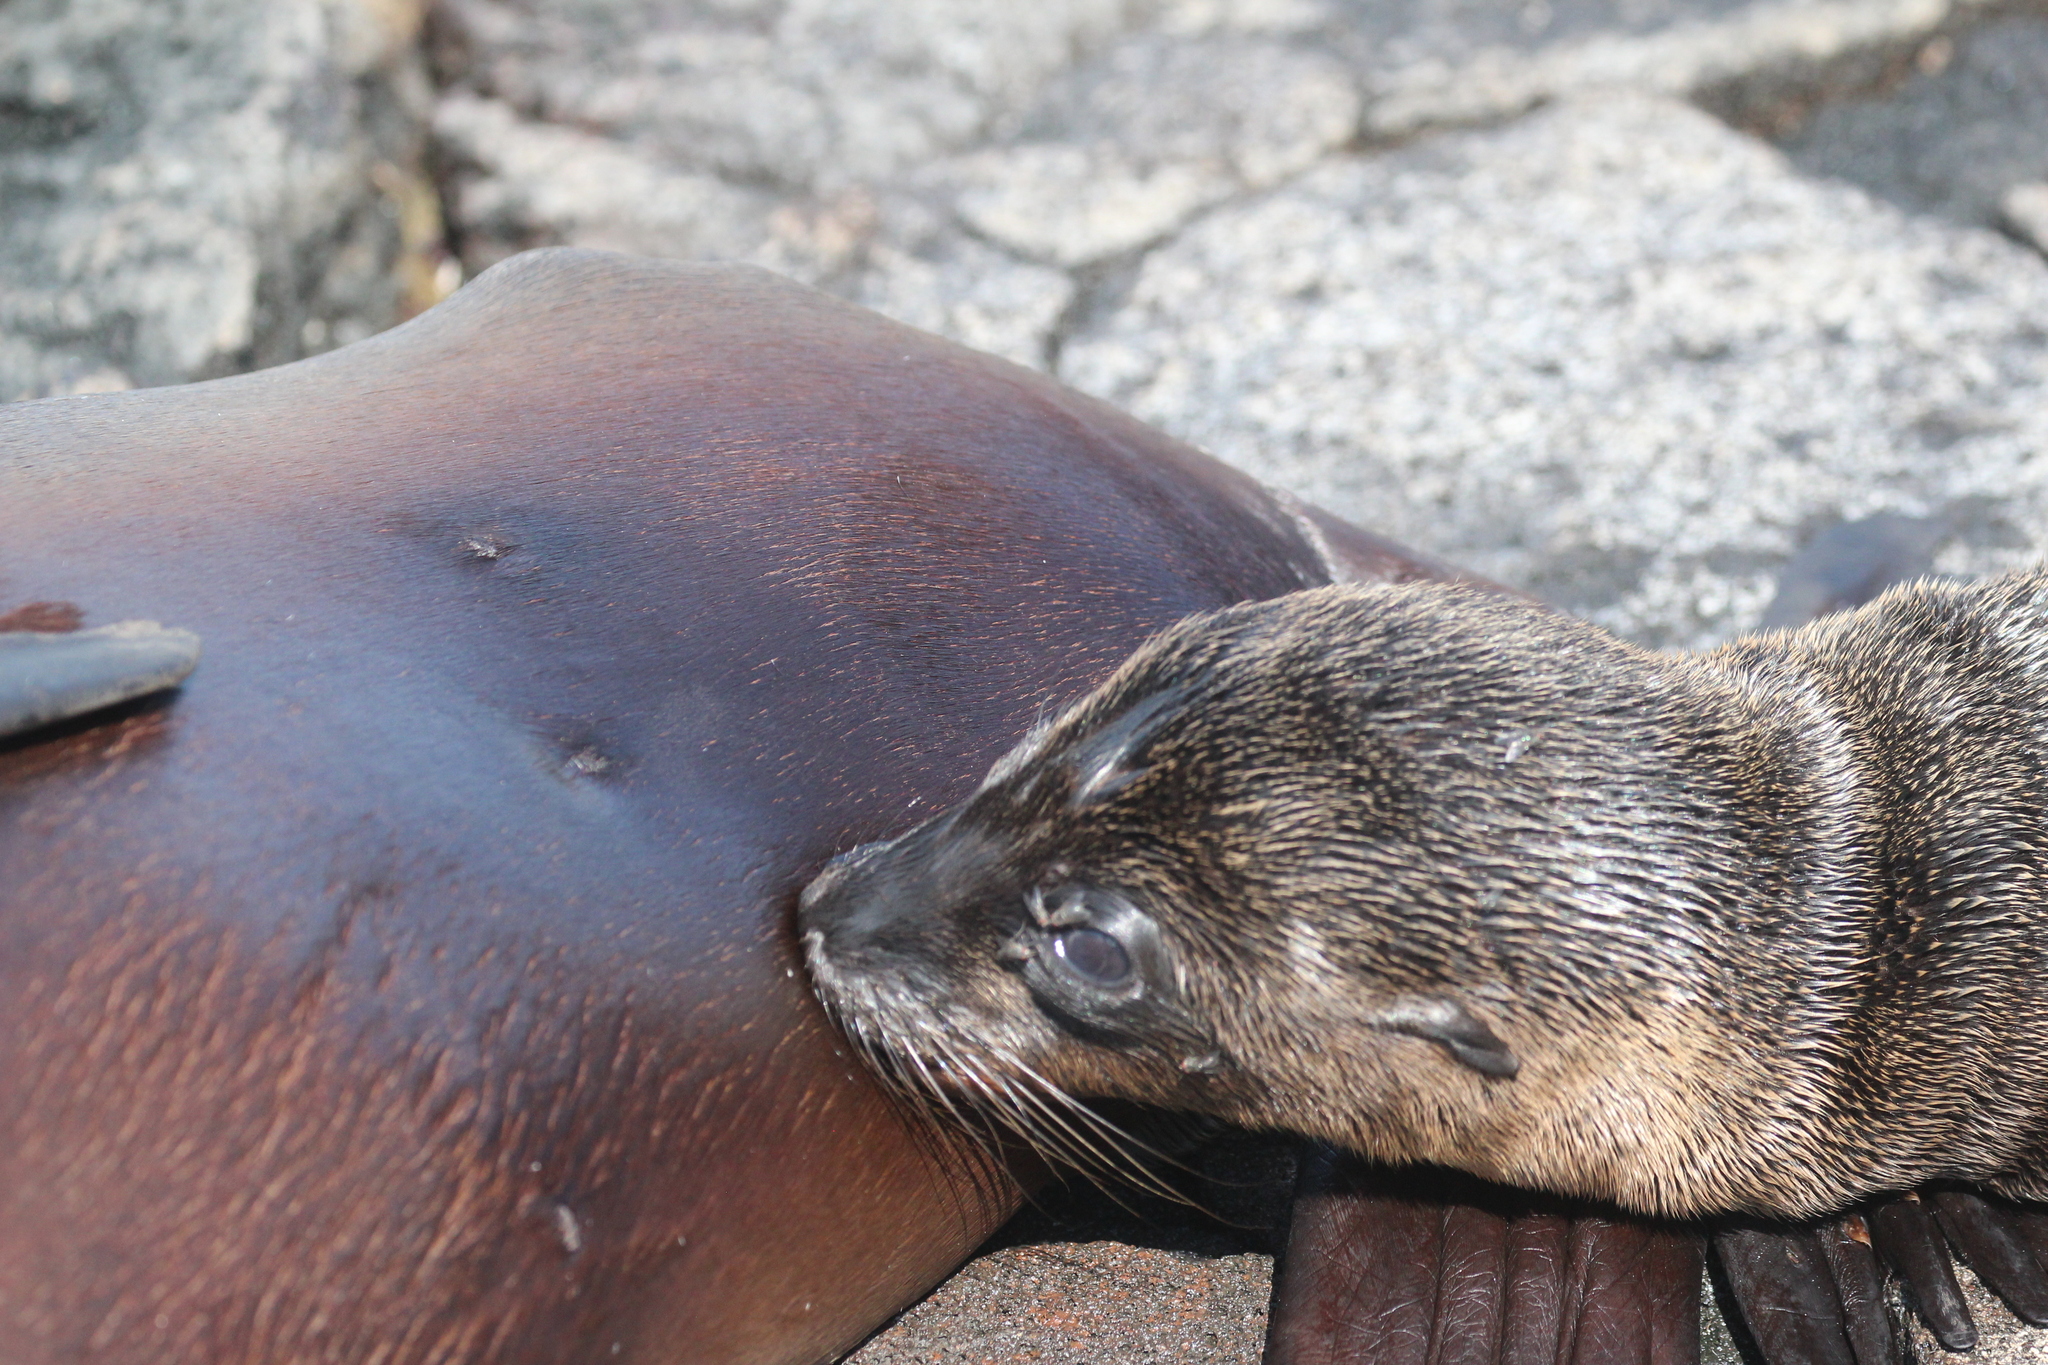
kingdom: Animalia
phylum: Chordata
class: Mammalia
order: Carnivora
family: Otariidae
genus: Zalophus
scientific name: Zalophus wollebaeki
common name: Galapagos sea lion
